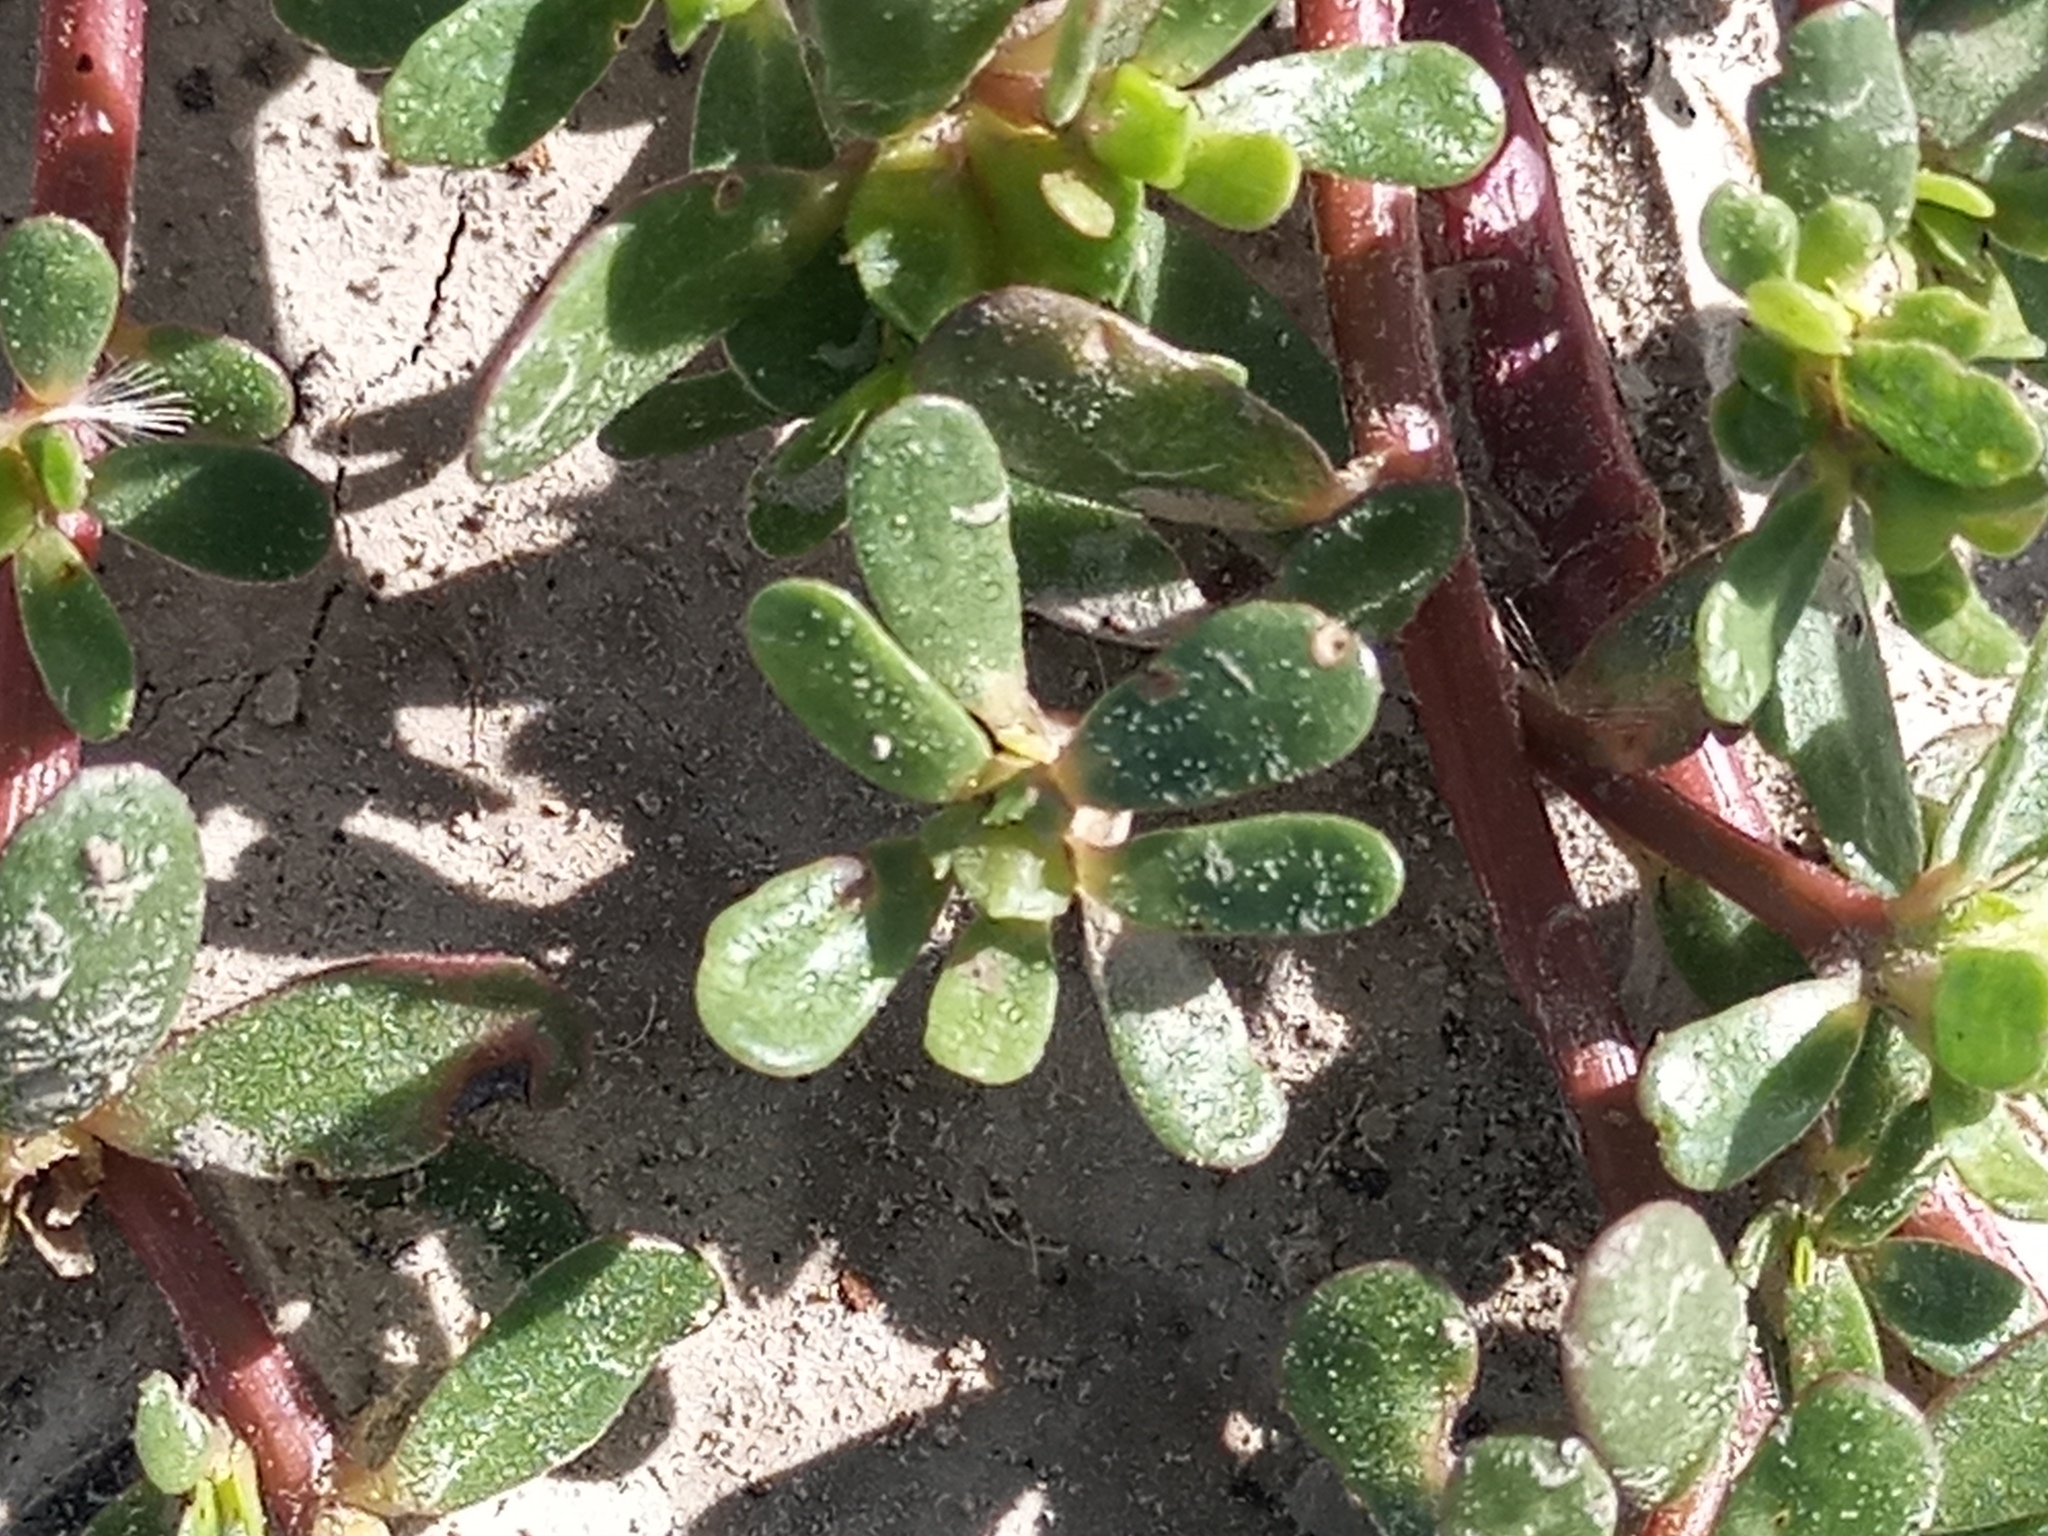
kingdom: Plantae
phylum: Tracheophyta
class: Magnoliopsida
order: Caryophyllales
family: Portulacaceae
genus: Portulaca
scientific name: Portulaca oleracea
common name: Common purslane
